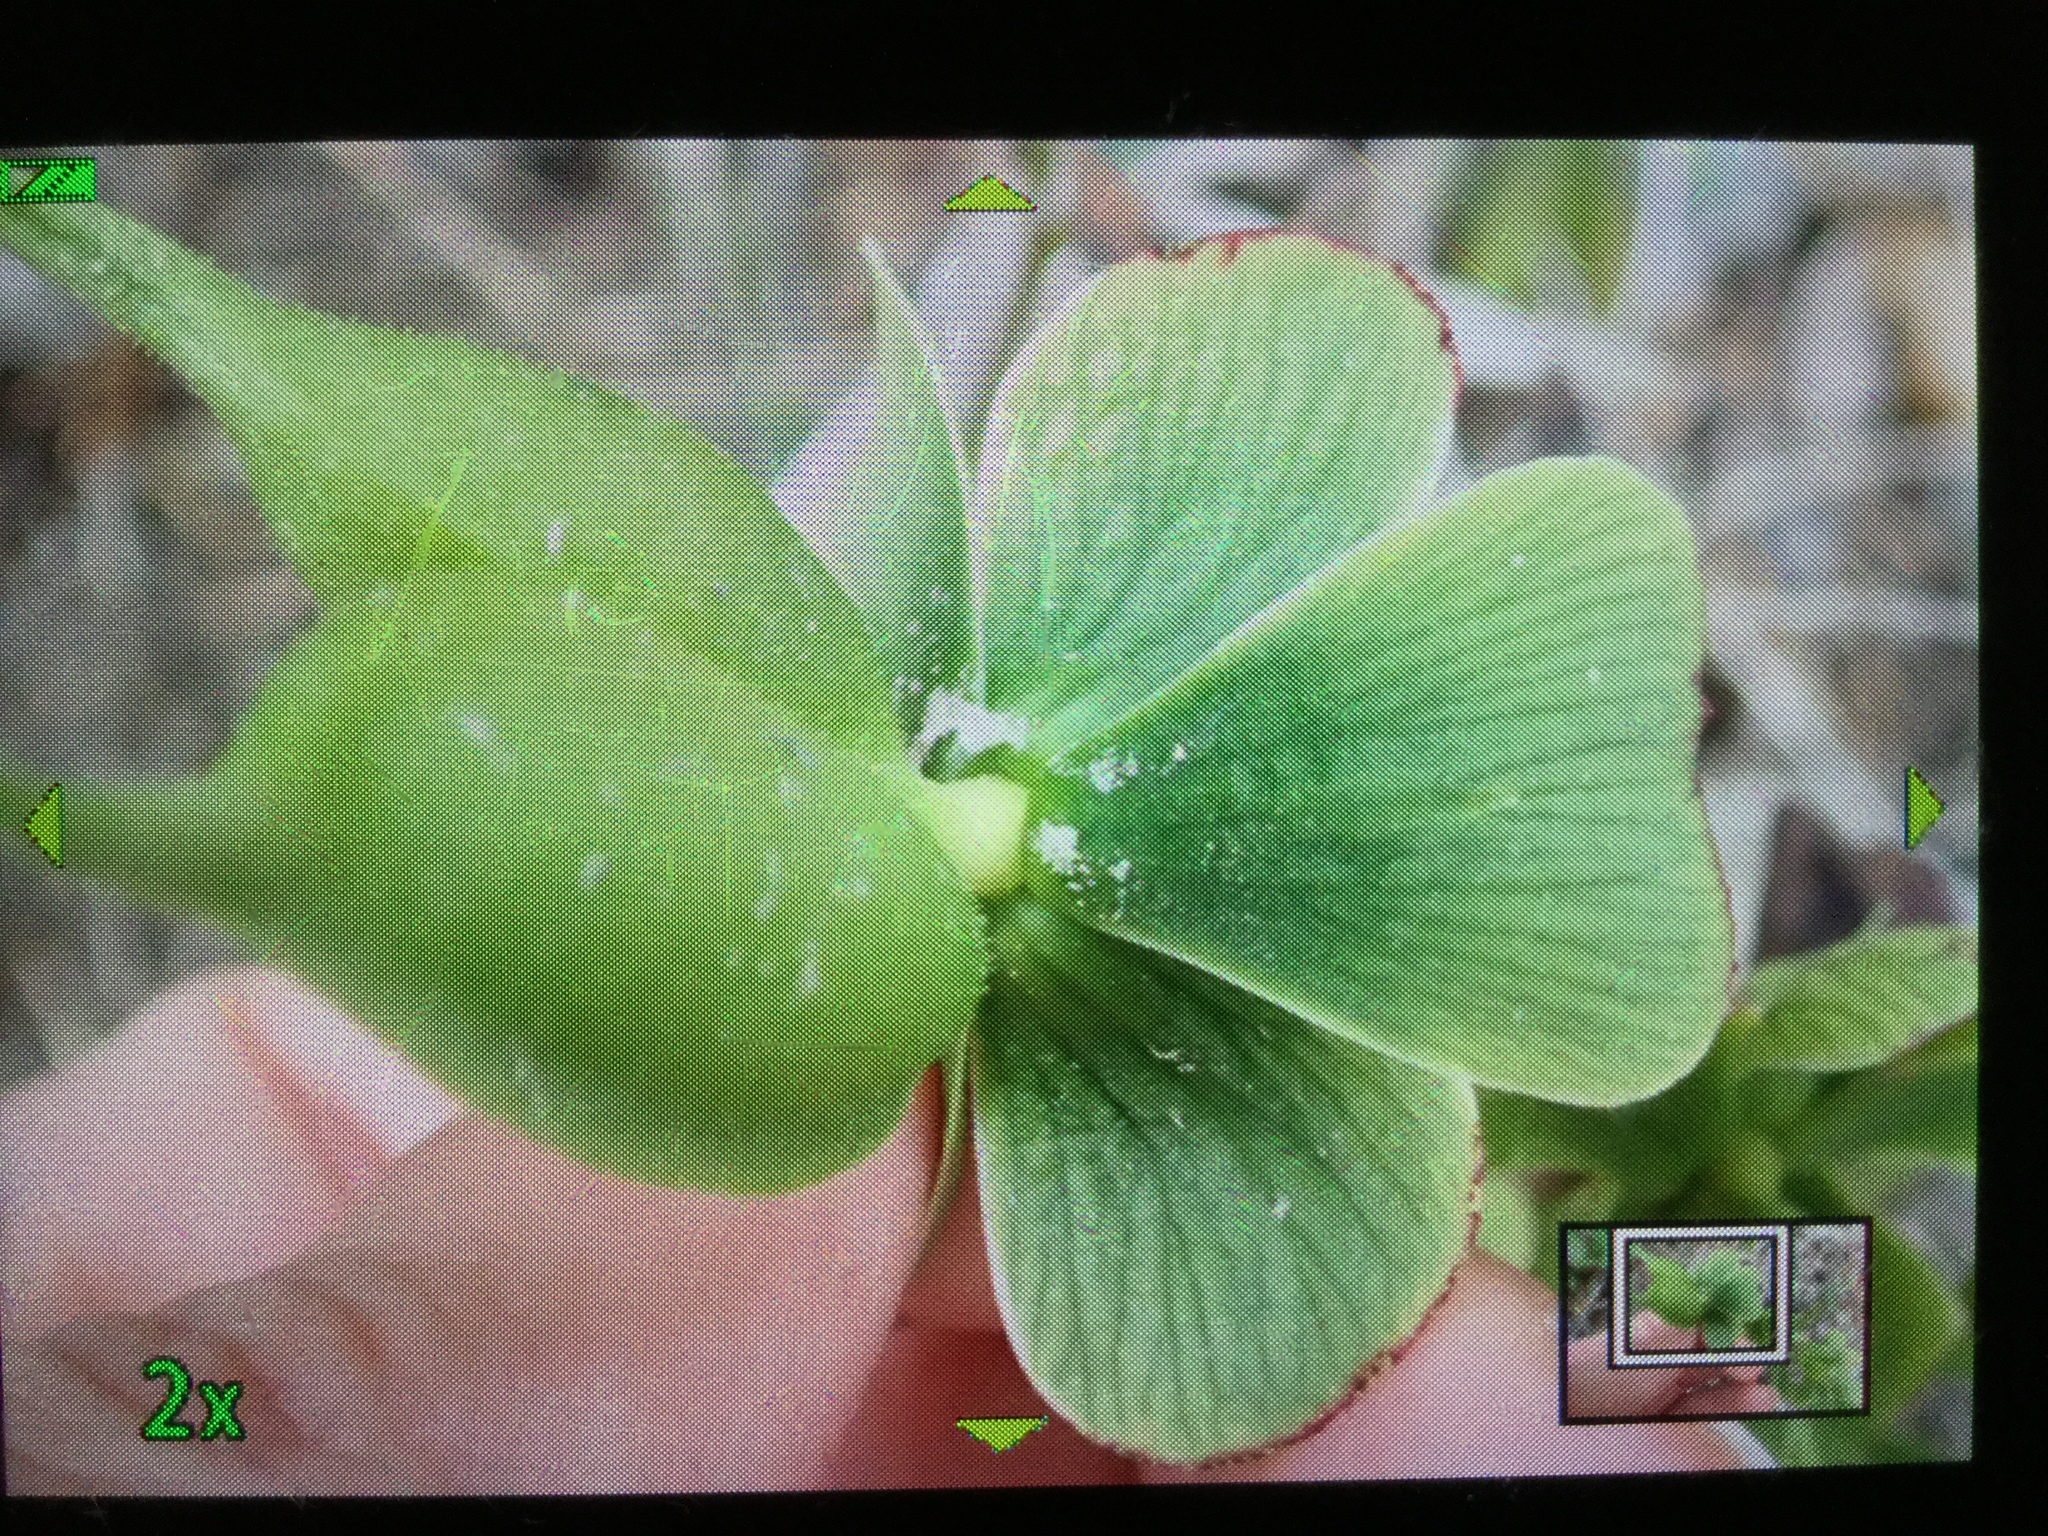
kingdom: Plantae
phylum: Tracheophyta
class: Magnoliopsida
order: Ranunculales
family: Ranunculaceae
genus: Helleborus
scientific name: Helleborus viridis
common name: Green hellebore
